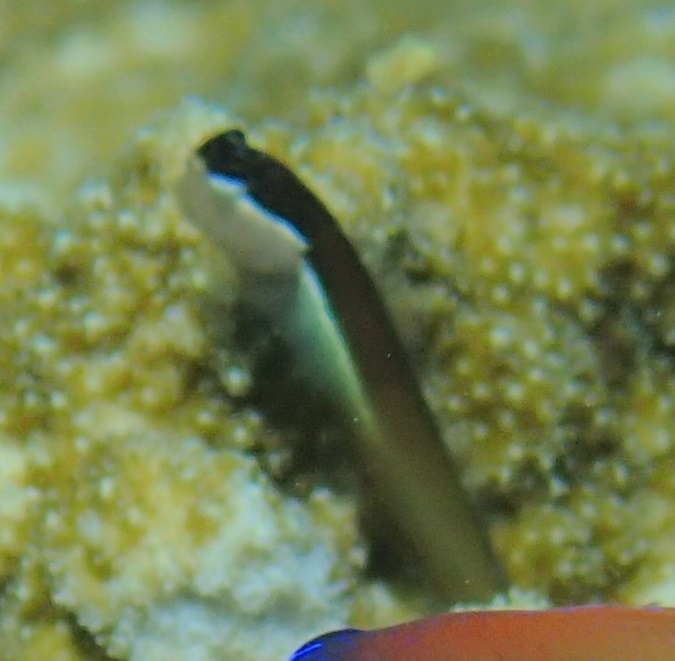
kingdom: Animalia
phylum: Chordata
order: Perciformes
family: Blenniidae
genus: Ecsenius
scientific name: Ecsenius shirleyae
